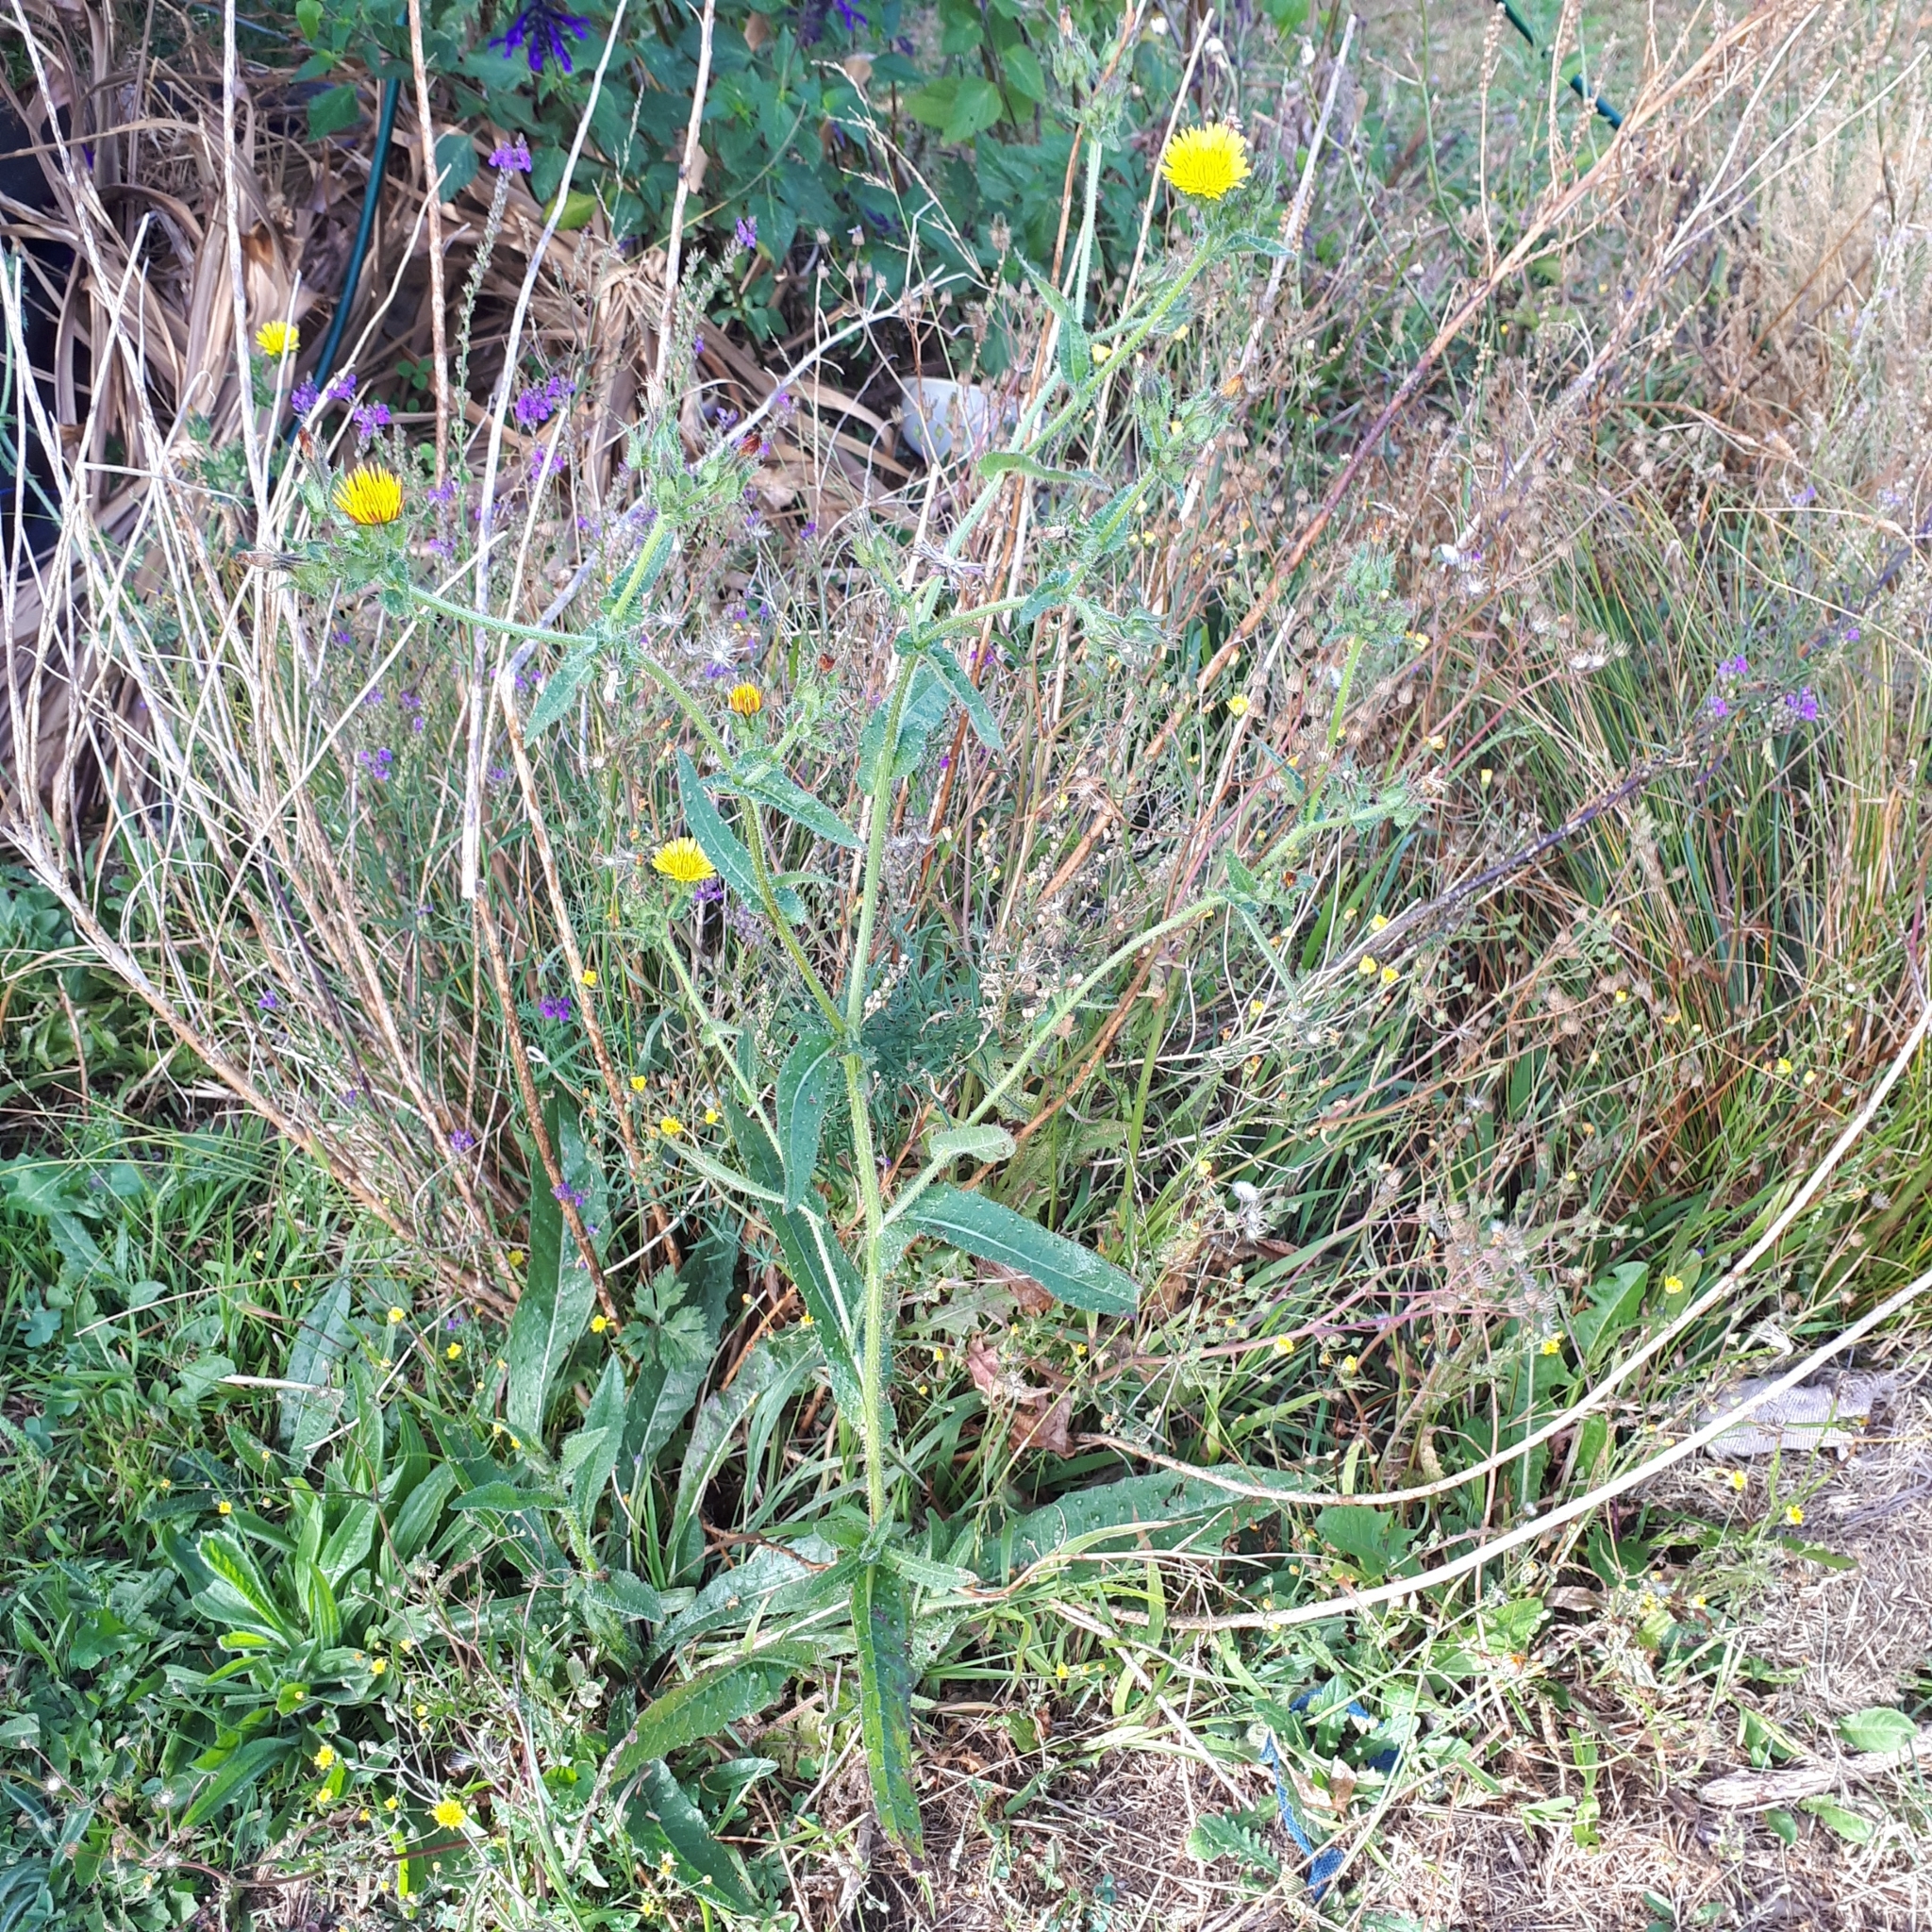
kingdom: Plantae
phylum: Tracheophyta
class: Magnoliopsida
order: Asterales
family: Asteraceae
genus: Helminthotheca
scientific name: Helminthotheca echioides
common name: Ox-tongue
